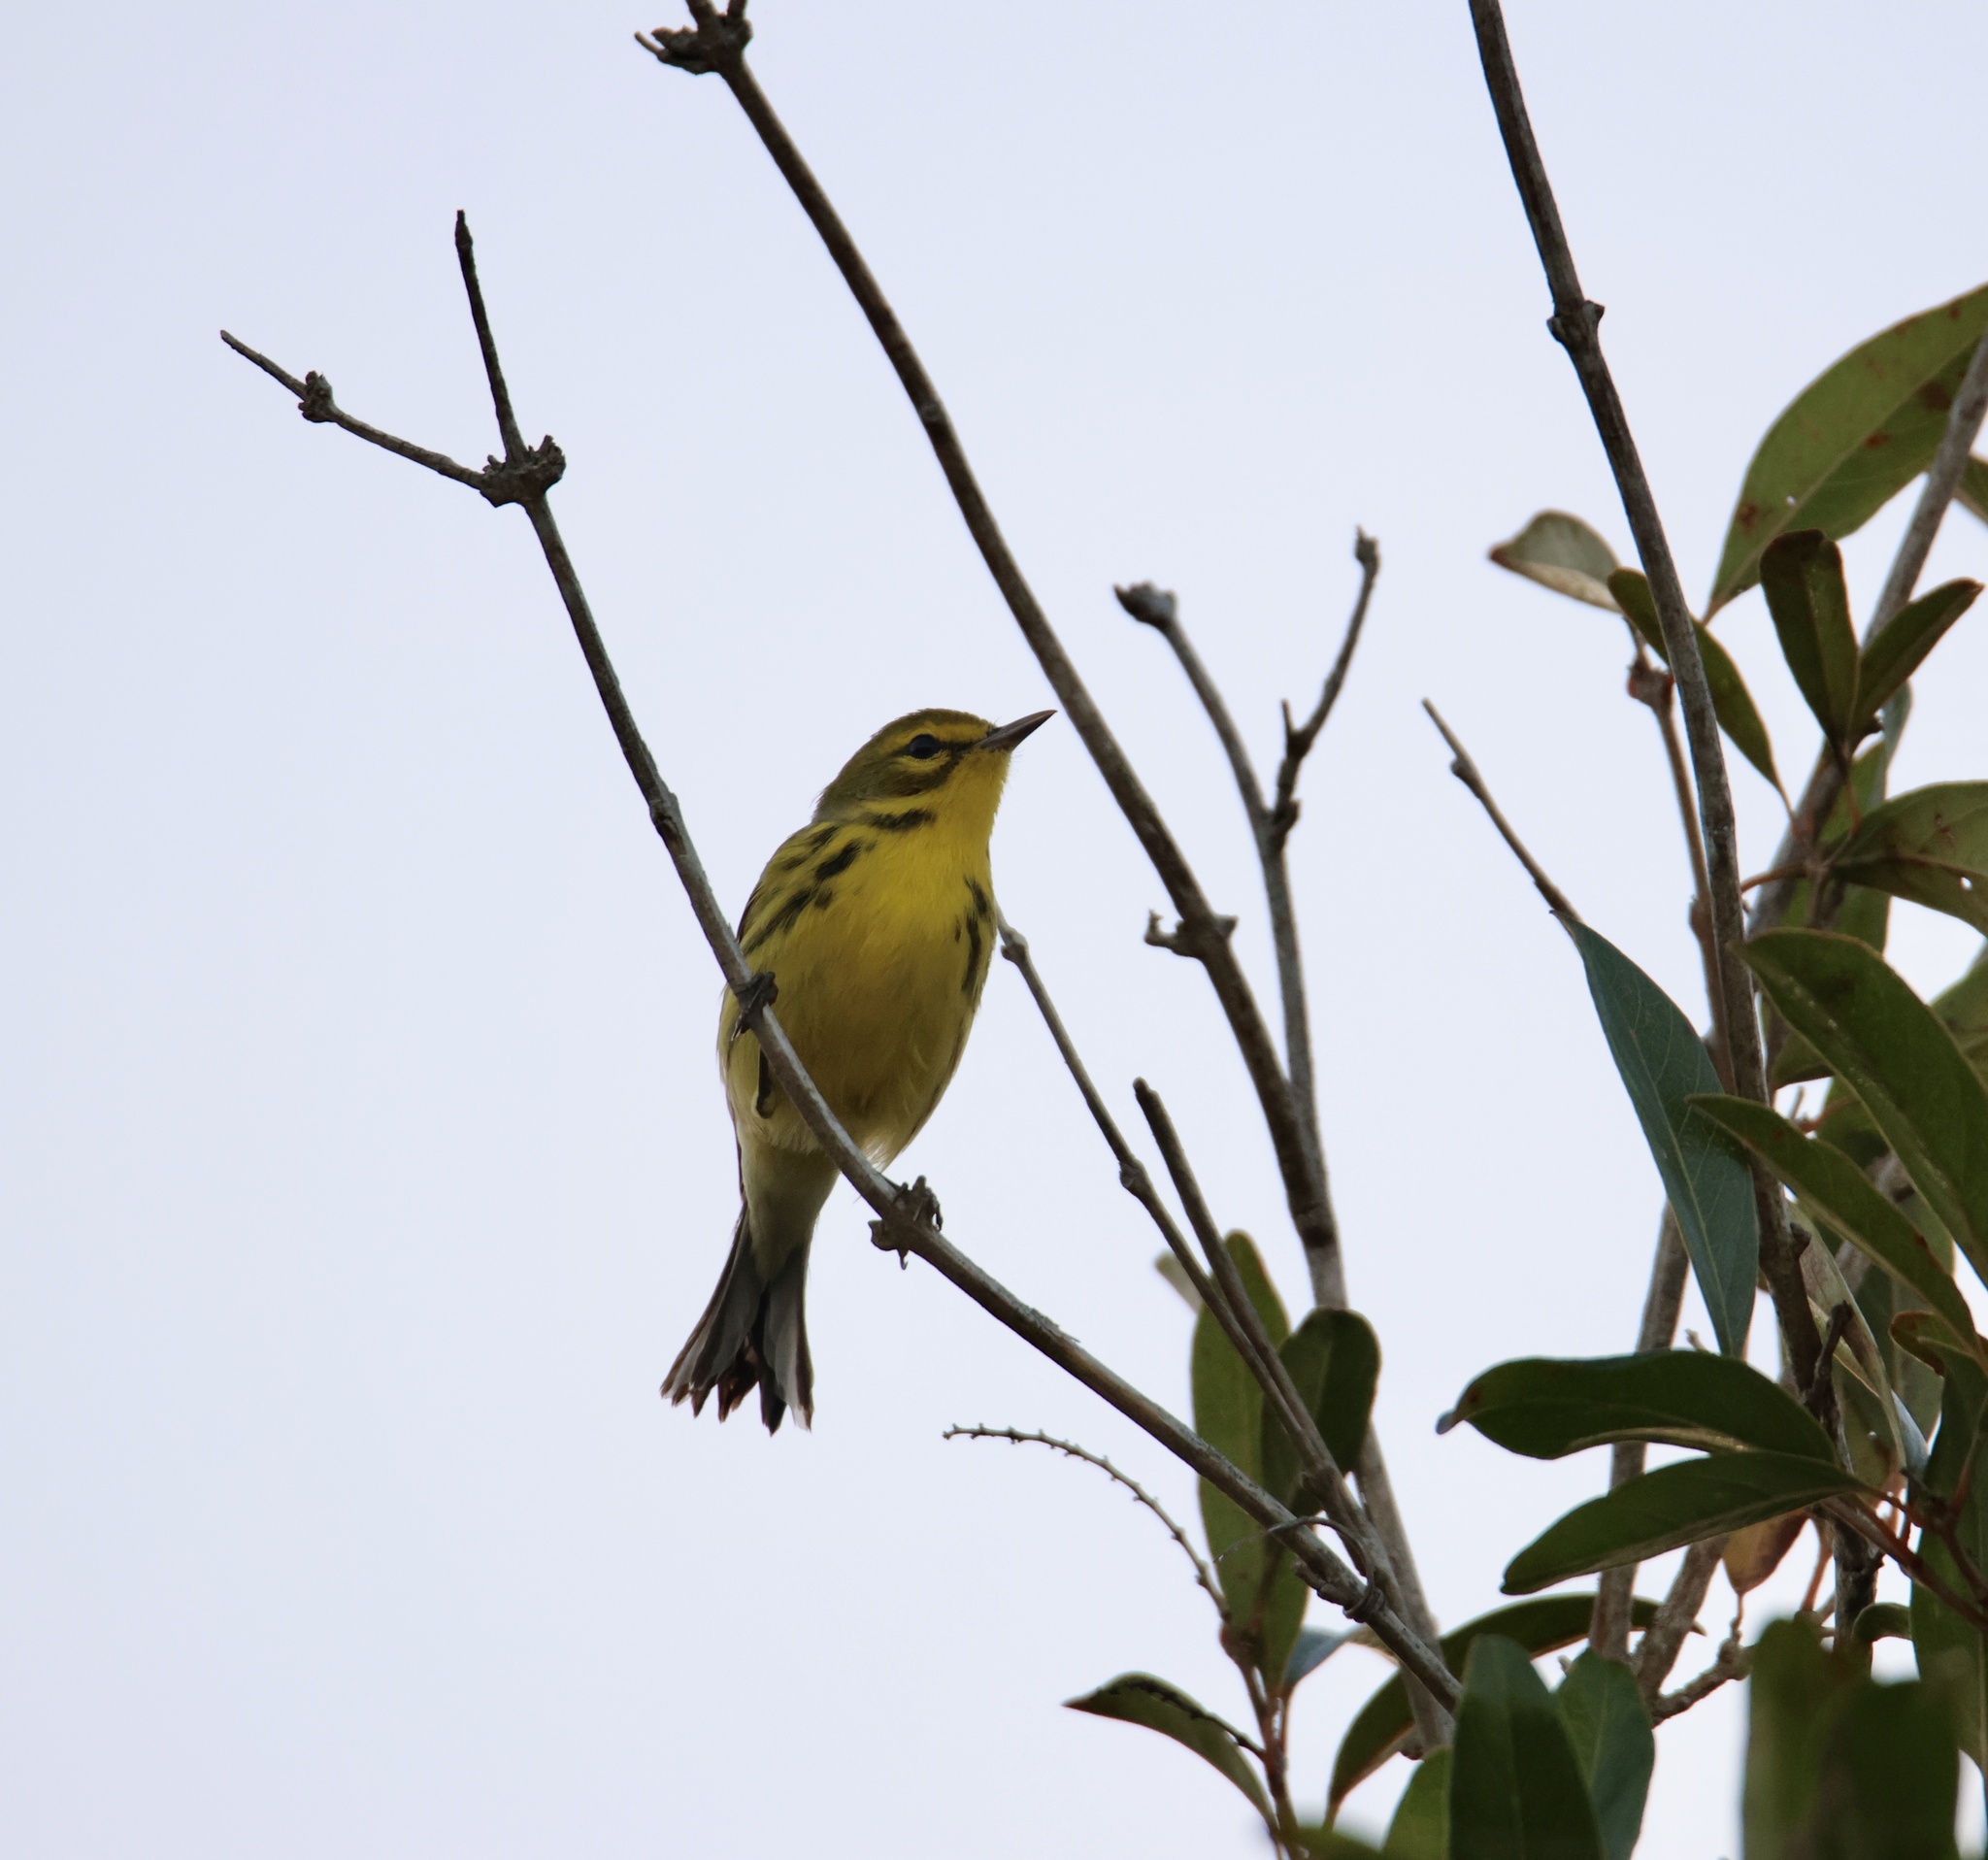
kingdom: Animalia
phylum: Chordata
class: Aves
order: Passeriformes
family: Parulidae
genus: Setophaga
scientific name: Setophaga discolor
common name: Prairie warbler
